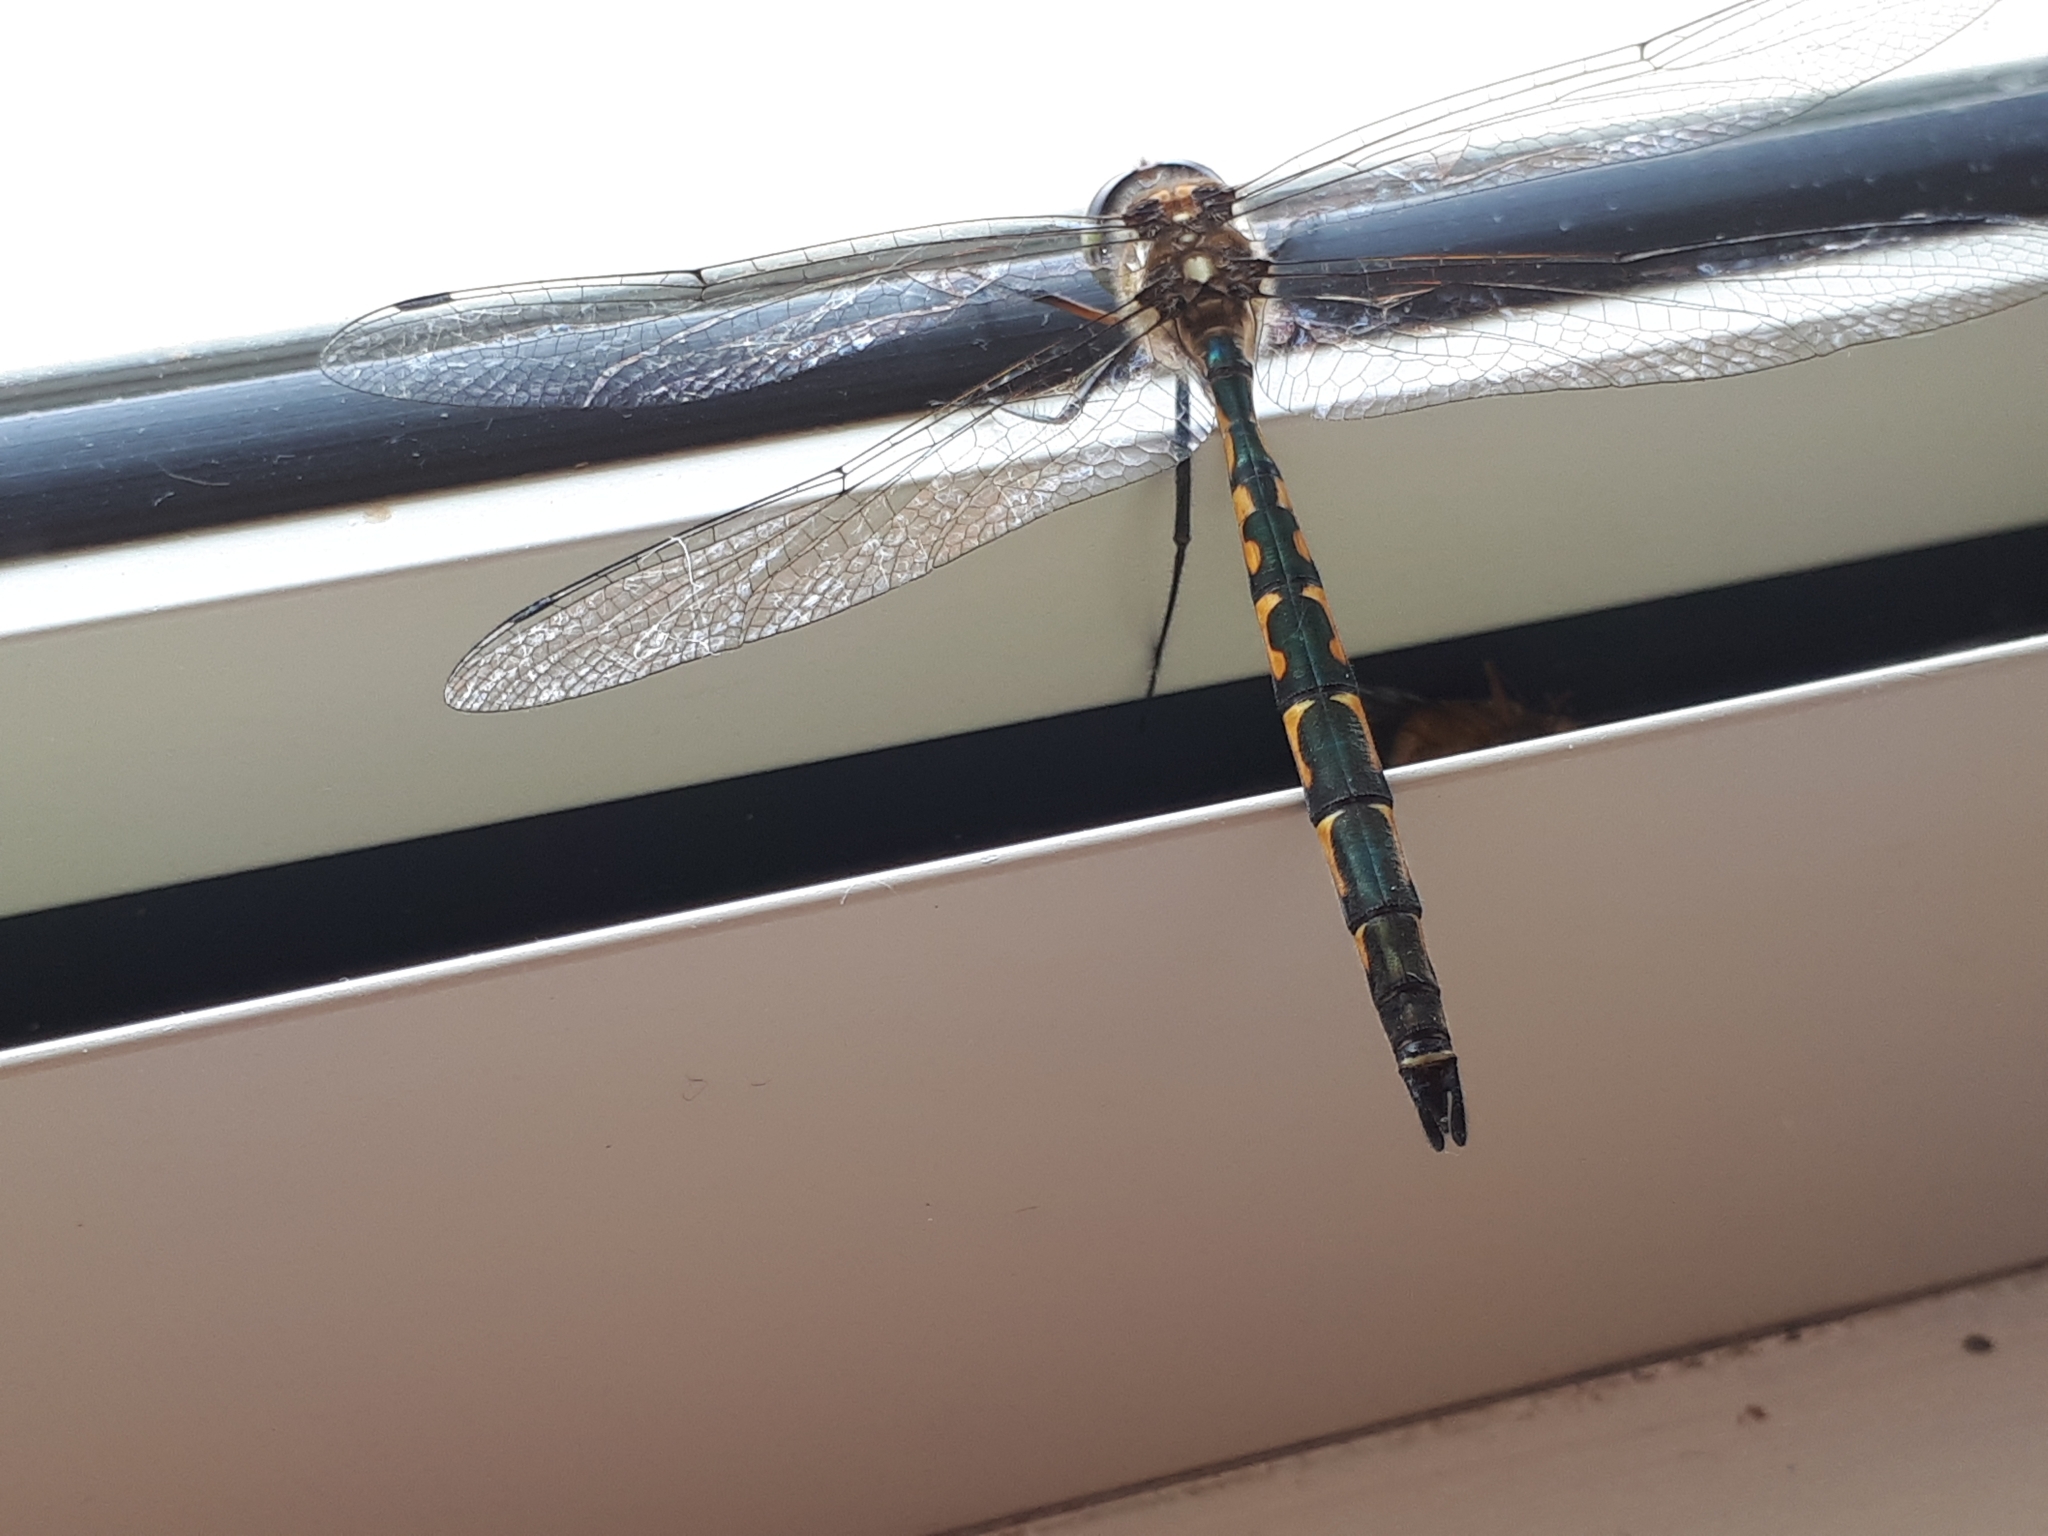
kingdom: Animalia
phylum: Arthropoda
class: Insecta
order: Odonata
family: Corduliidae
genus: Hemicordulia
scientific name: Hemicordulia australiae
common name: Sentry dragonfly
